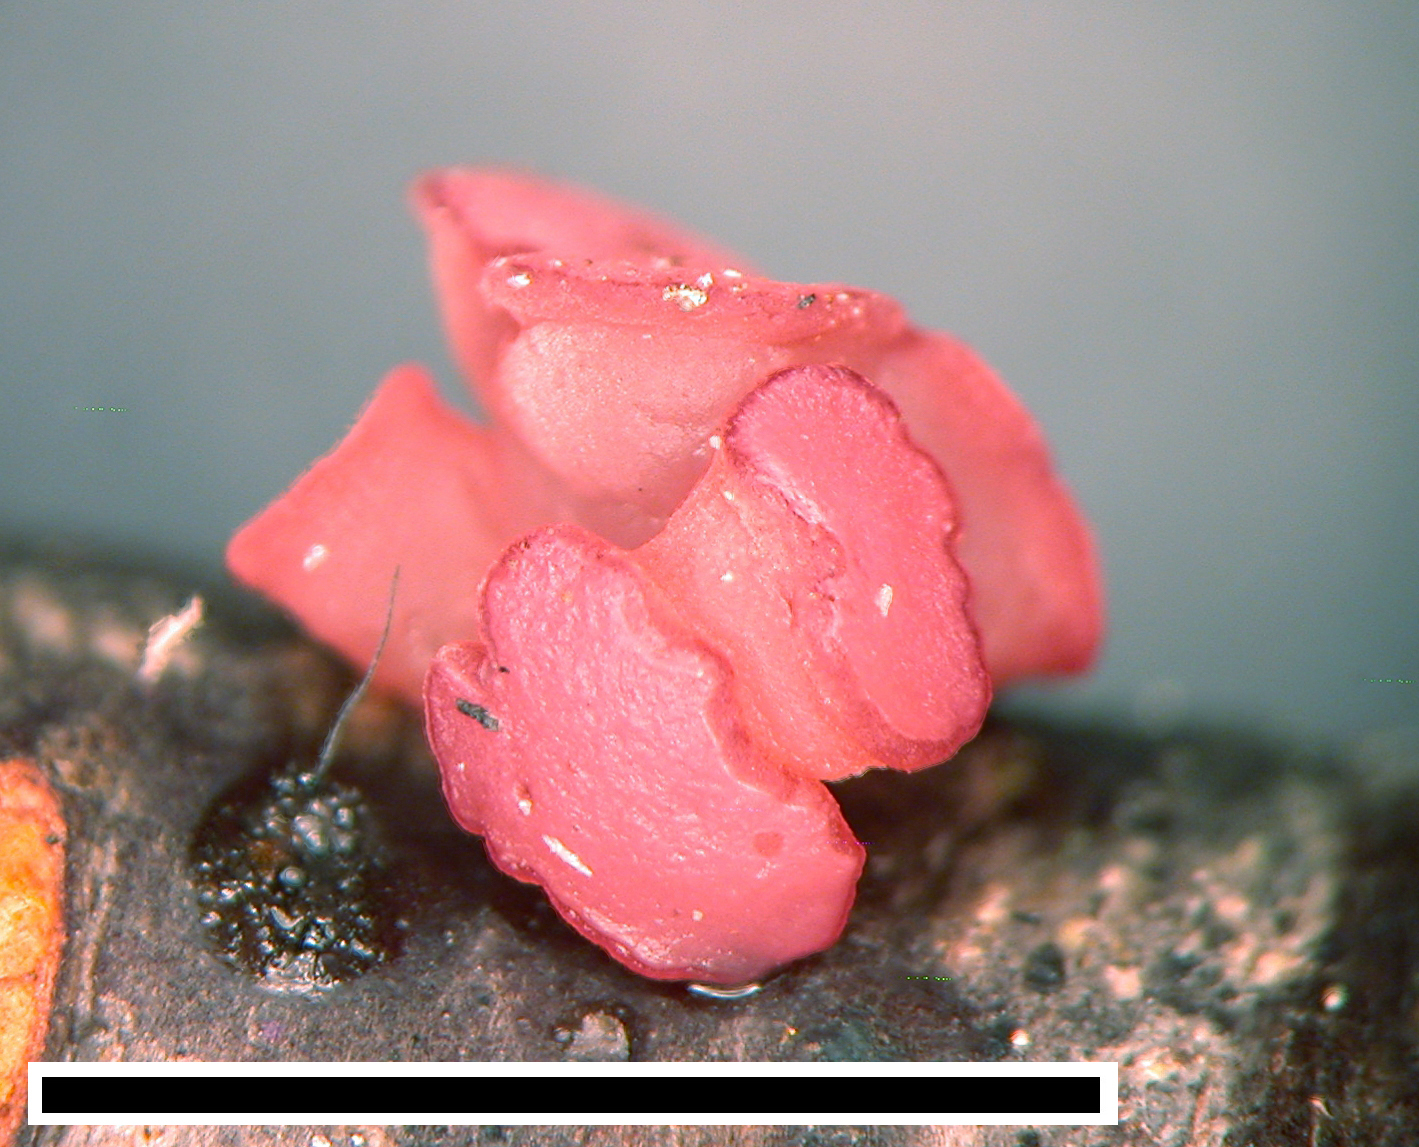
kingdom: Fungi
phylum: Ascomycota
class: Leotiomycetes
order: Helotiales
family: Gelatinodiscaceae
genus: Ascocoryne
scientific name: Ascocoryne sarcoides
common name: Purple jellydisc
